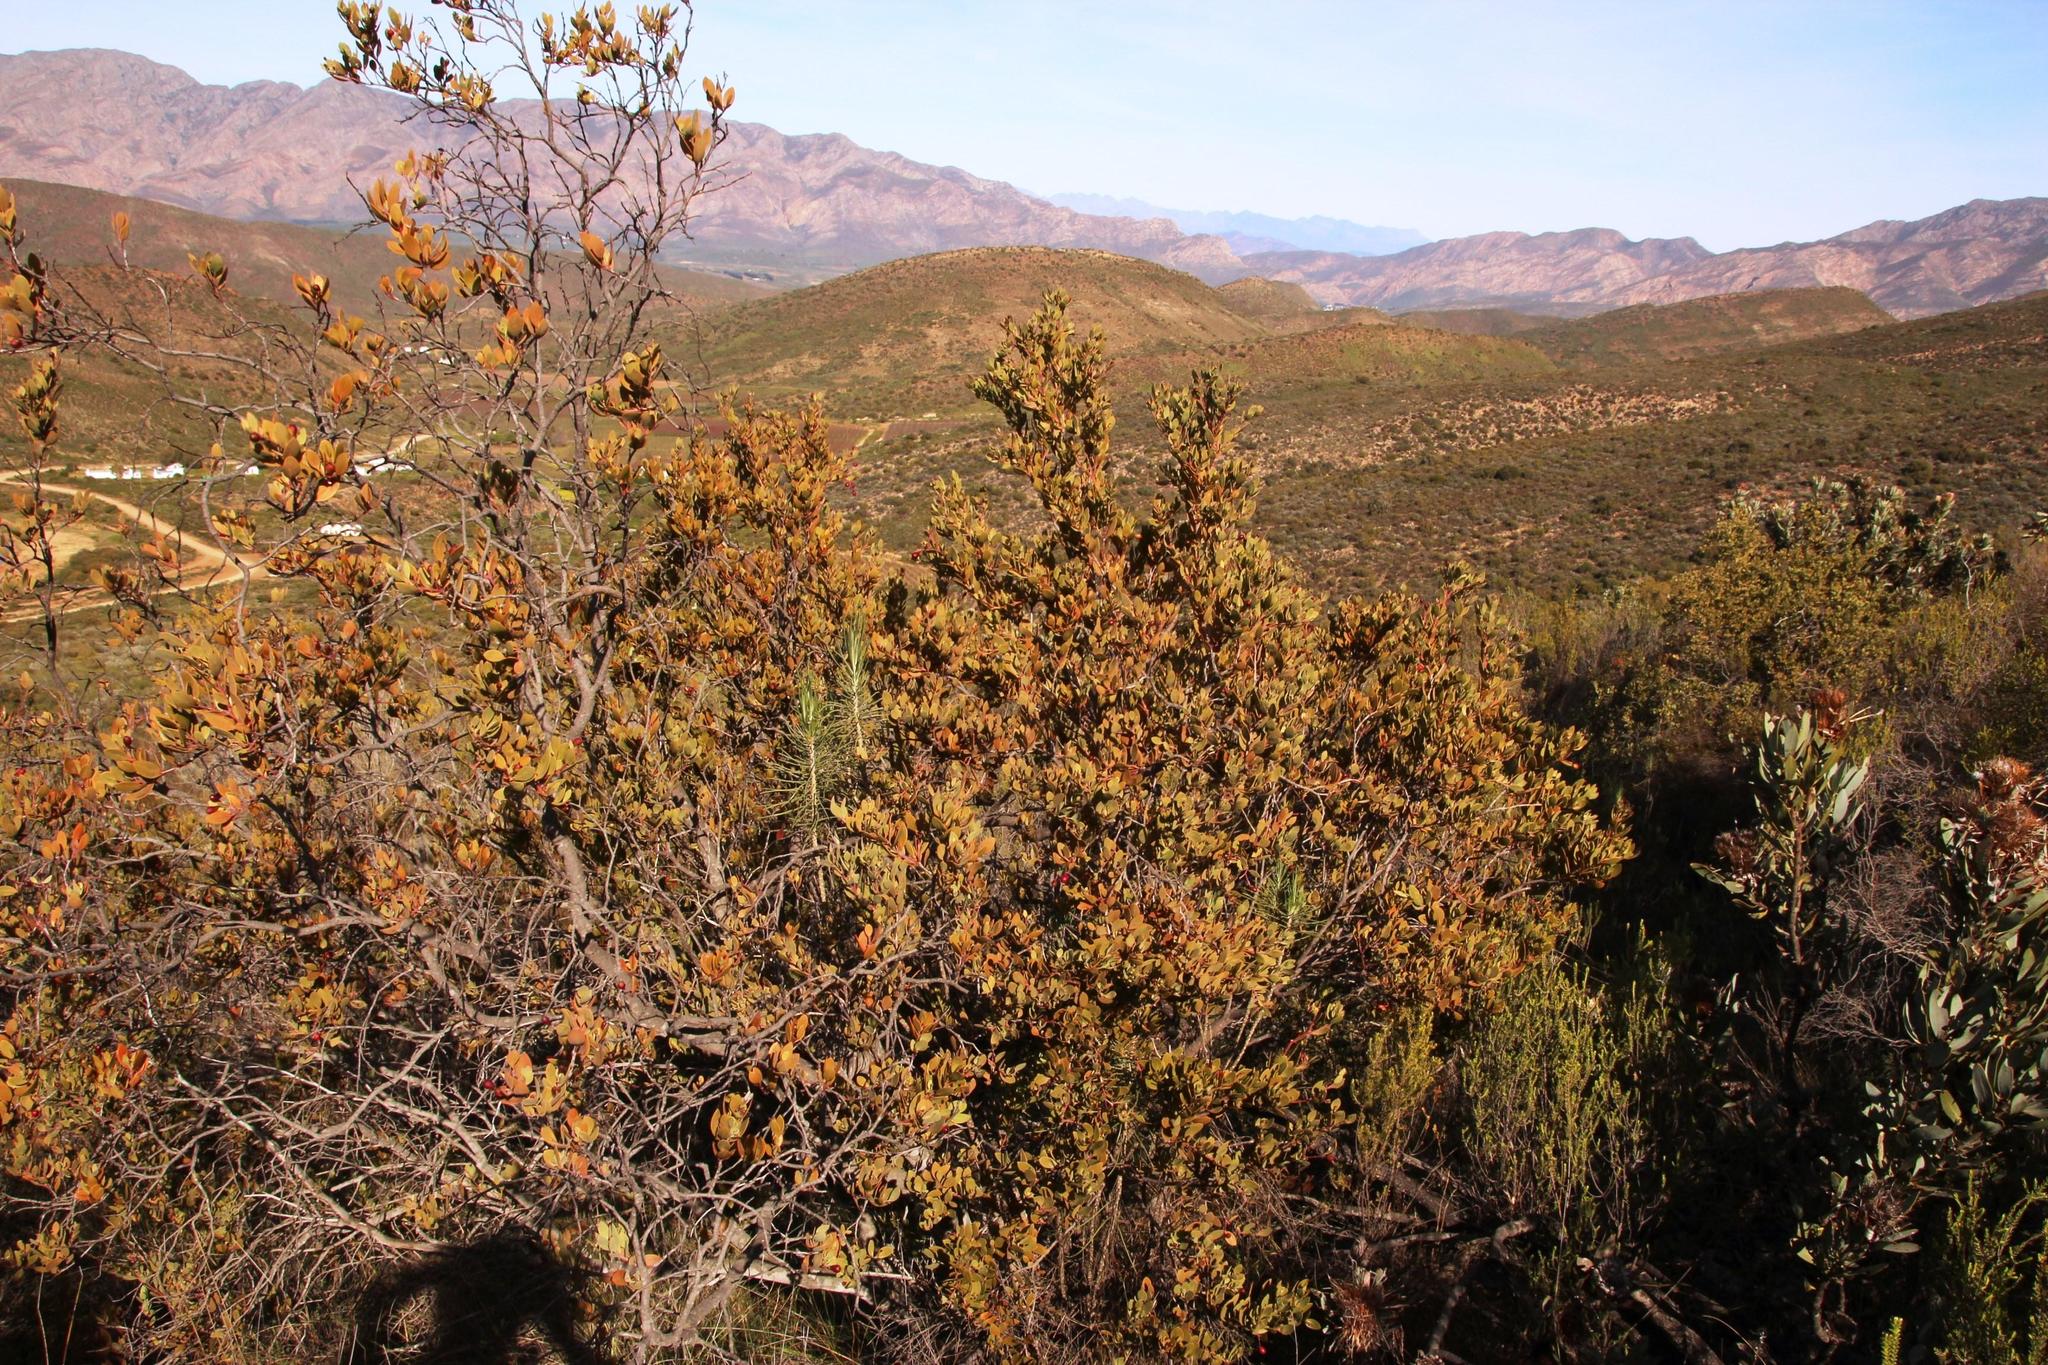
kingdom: Plantae
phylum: Tracheophyta
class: Magnoliopsida
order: Santalales
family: Santalaceae
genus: Osyris
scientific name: Osyris compressa
